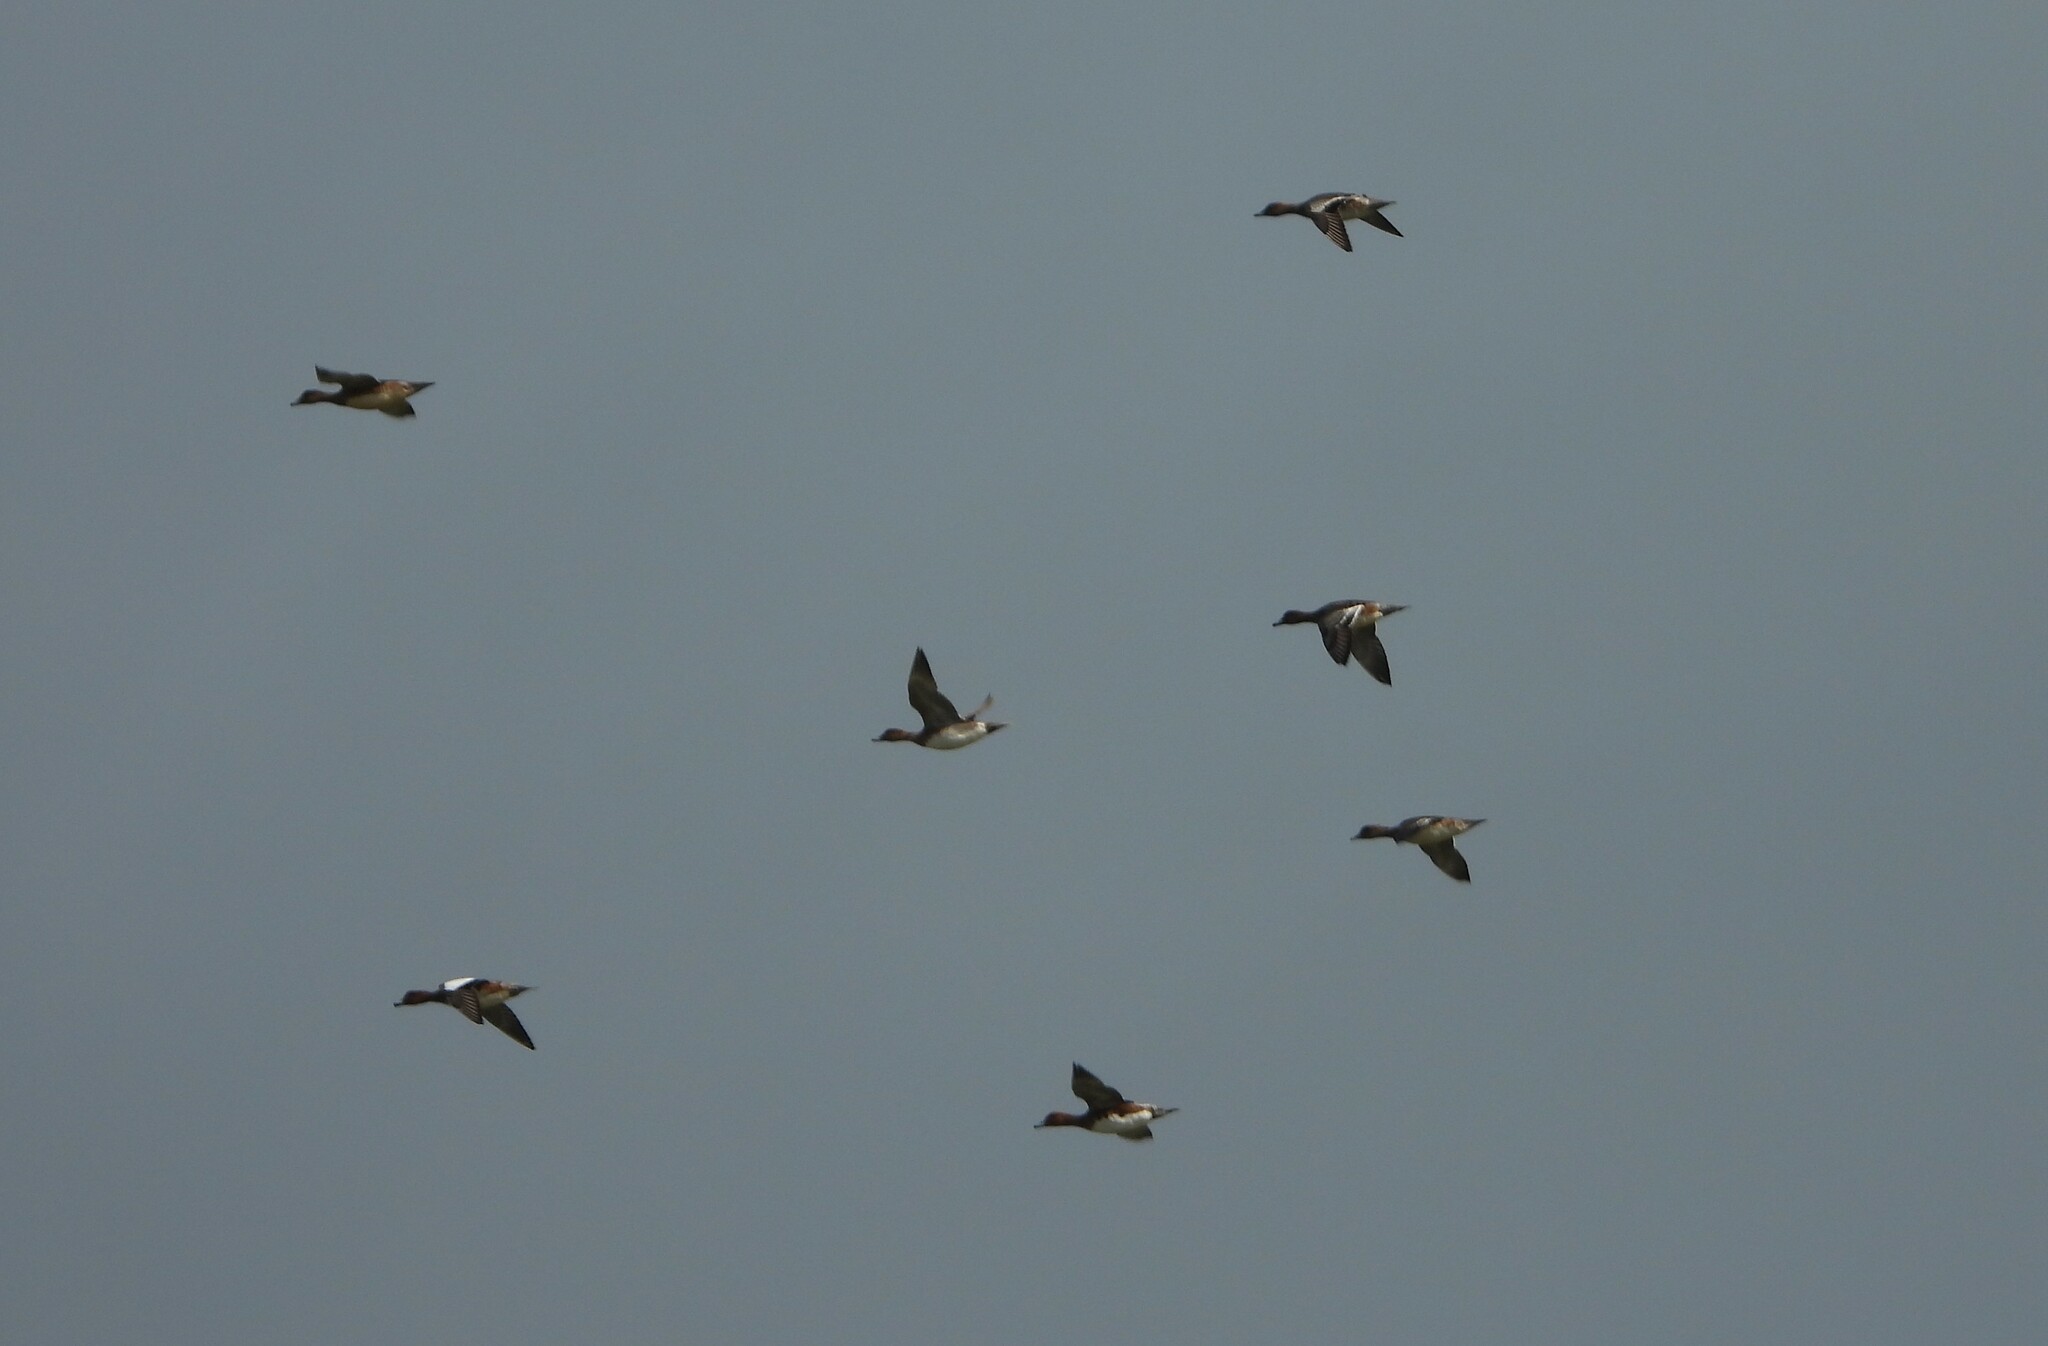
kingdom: Animalia
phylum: Chordata
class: Aves
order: Anseriformes
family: Anatidae
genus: Mareca
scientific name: Mareca penelope
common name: Eurasian wigeon
